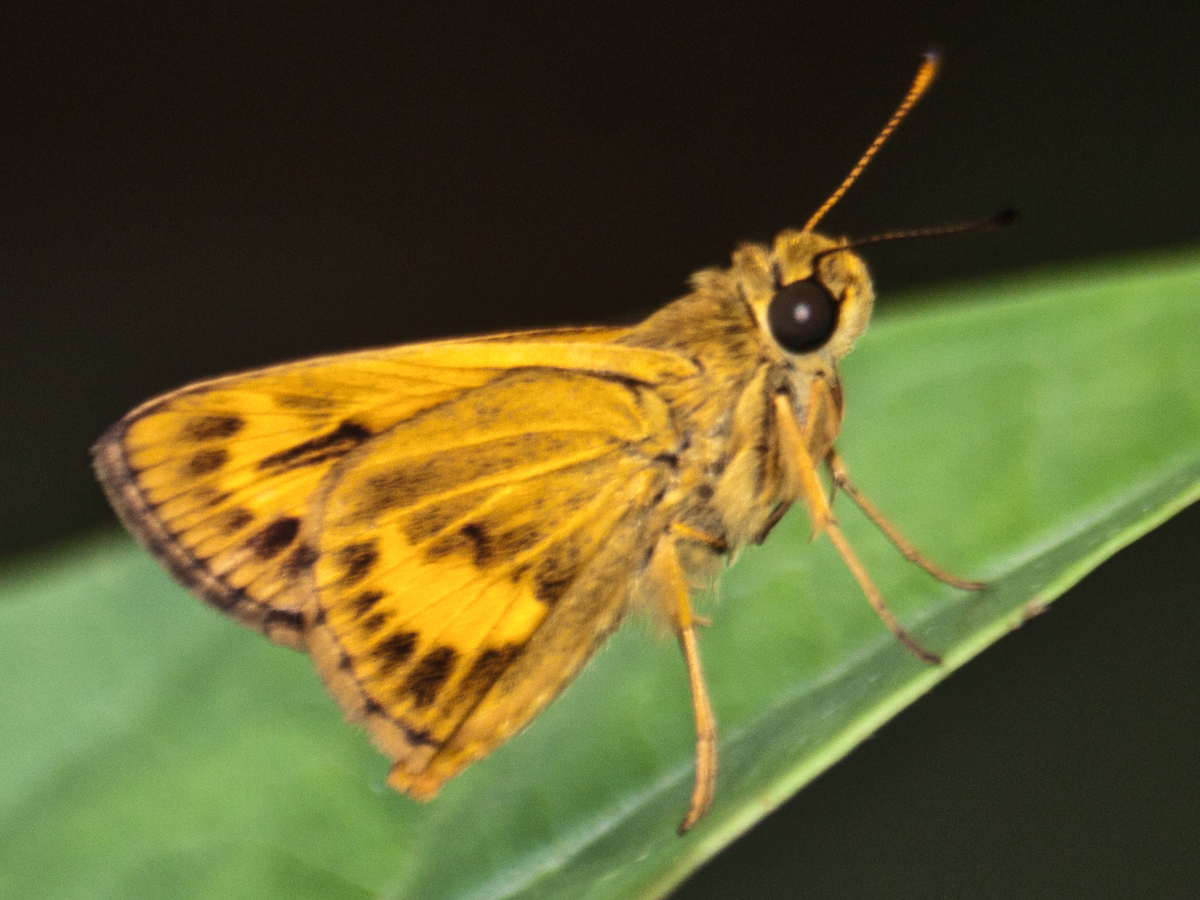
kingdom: Animalia
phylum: Arthropoda
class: Insecta
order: Lepidoptera
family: Hesperiidae
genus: Oriens
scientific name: Oriens gola
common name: Common dartlet
